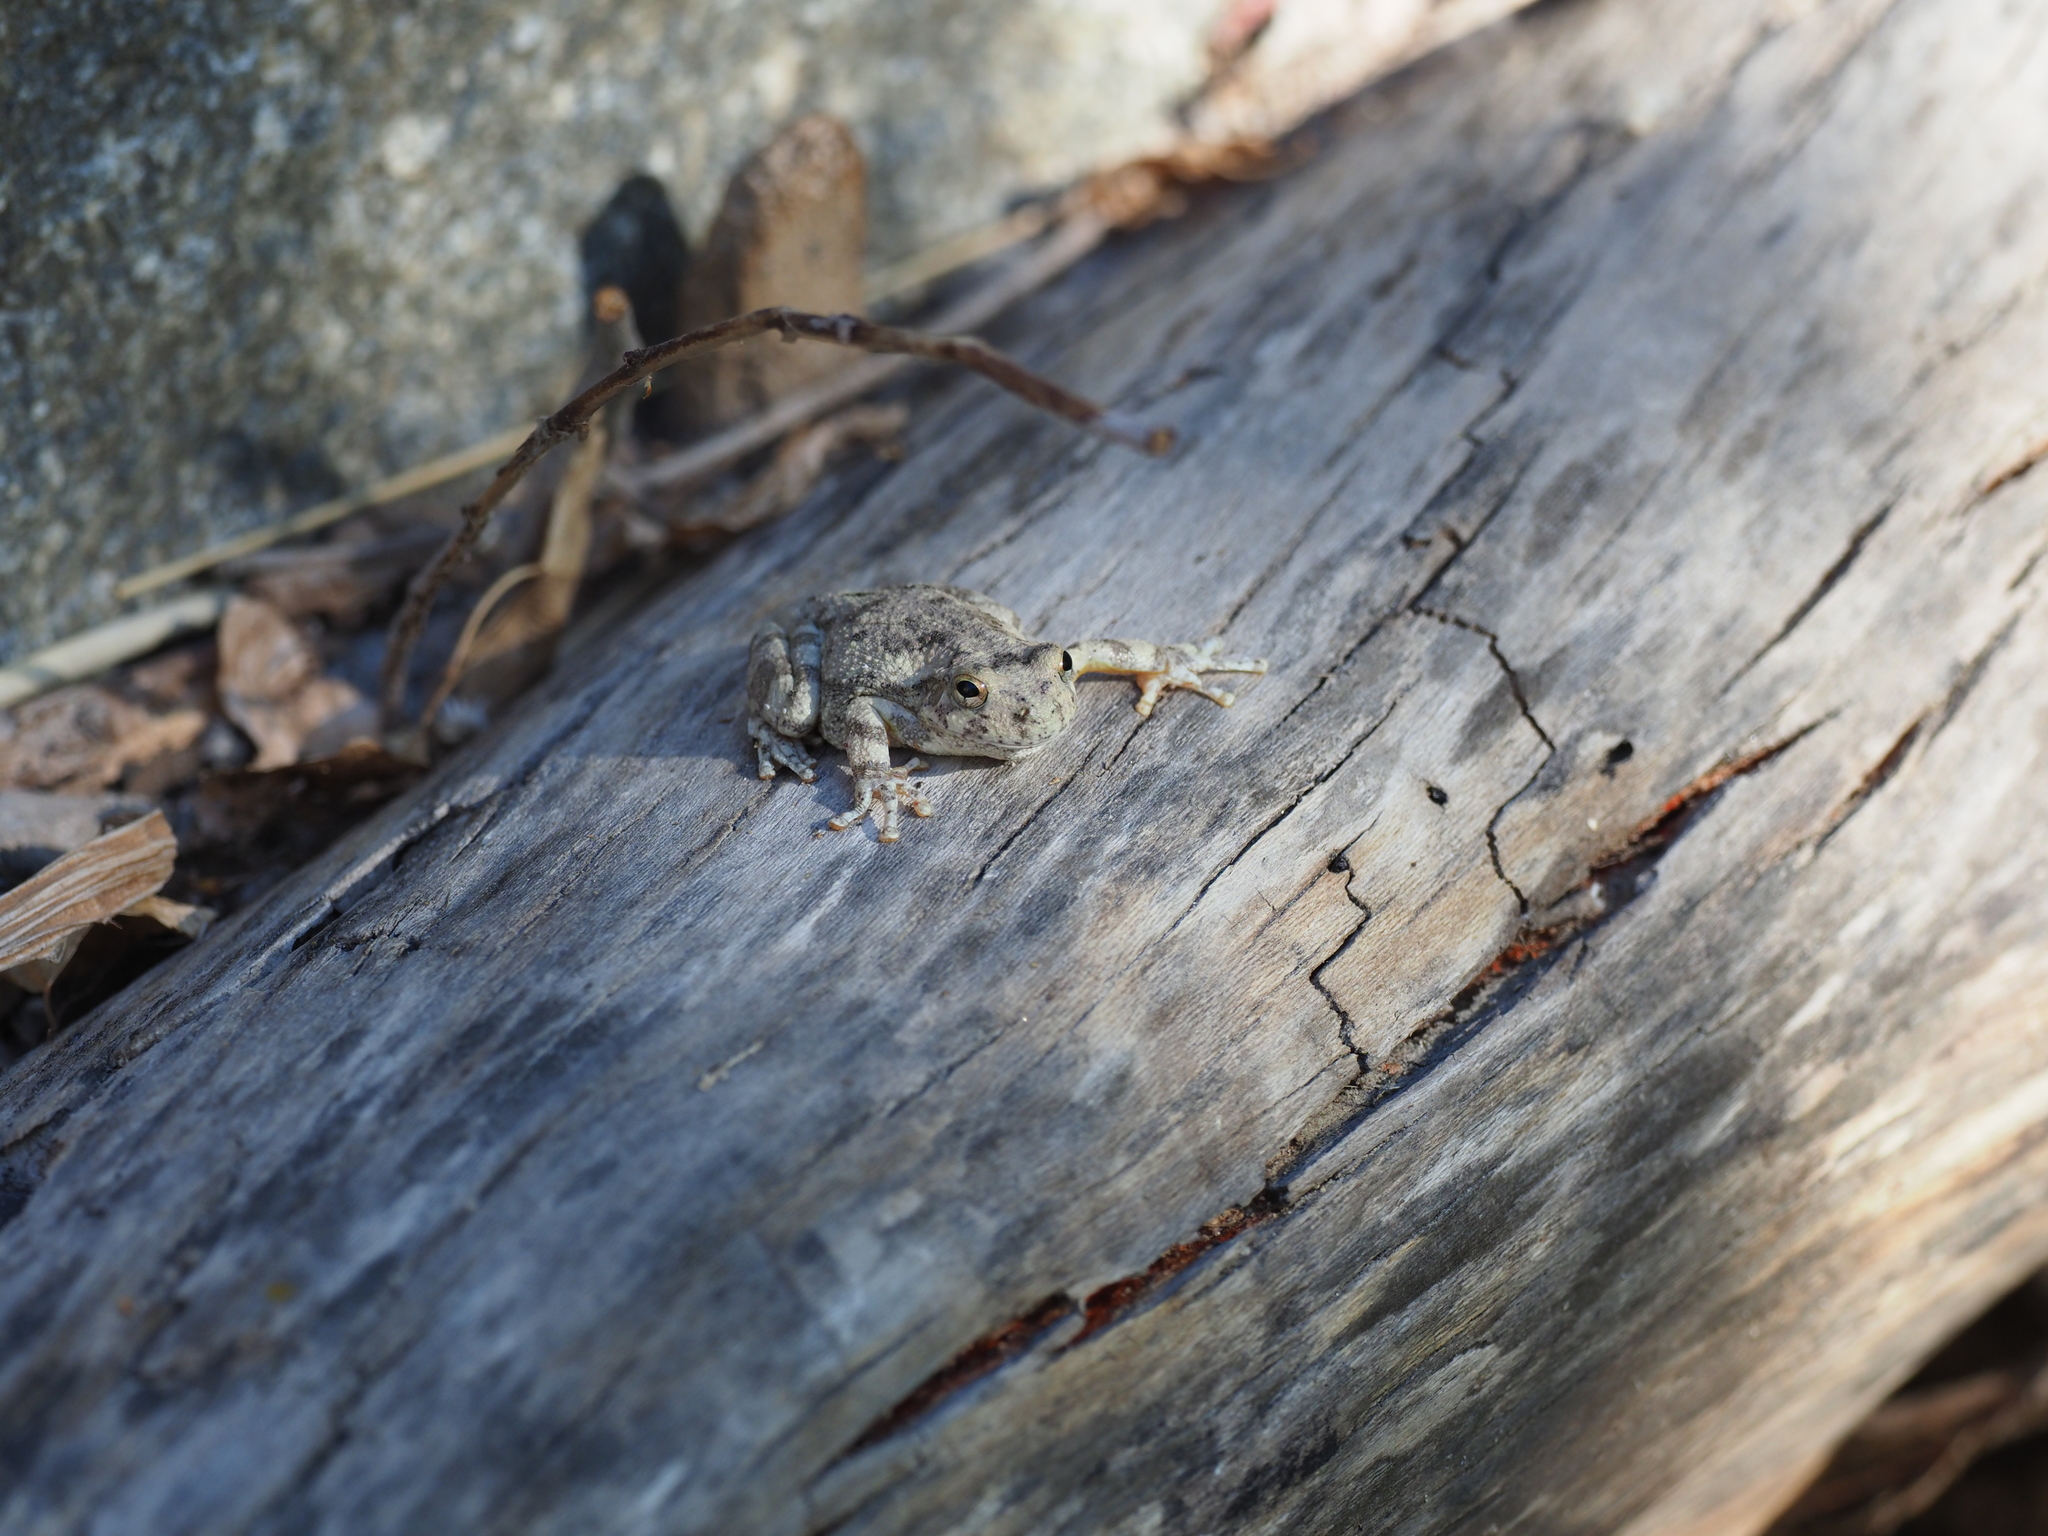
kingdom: Animalia
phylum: Chordata
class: Amphibia
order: Anura
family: Hylidae
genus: Dryophytes
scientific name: Dryophytes arenicolor
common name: Canyon treefrog
